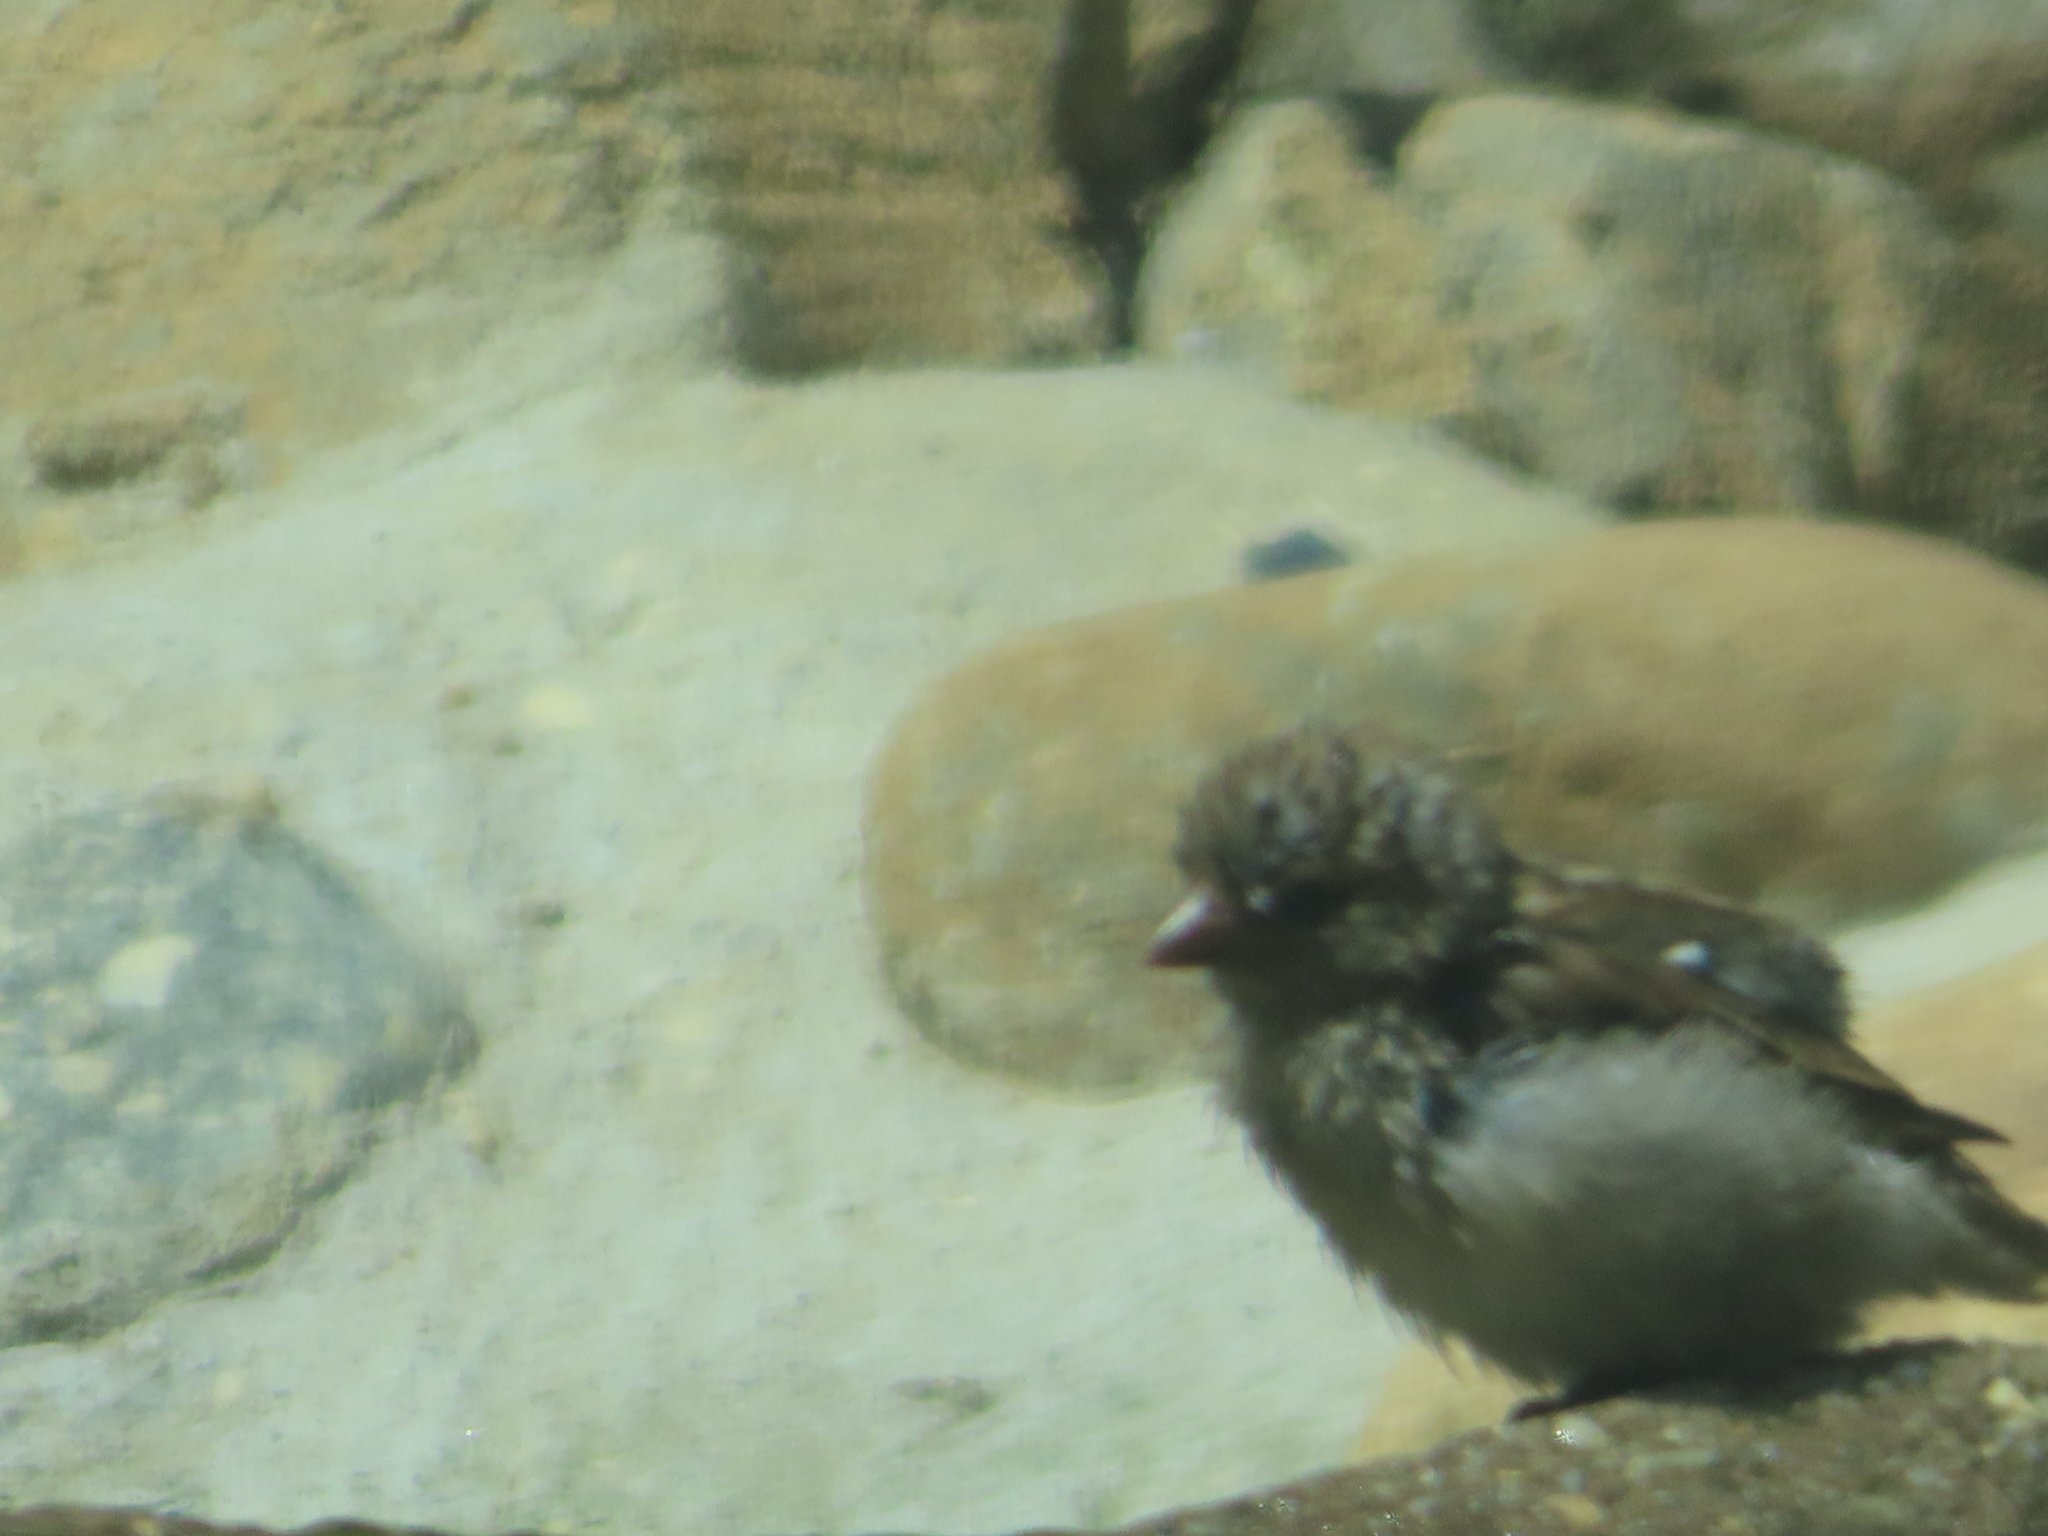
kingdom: Animalia
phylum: Chordata
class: Aves
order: Passeriformes
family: Passeridae
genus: Passer
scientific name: Passer domesticus
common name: House sparrow
